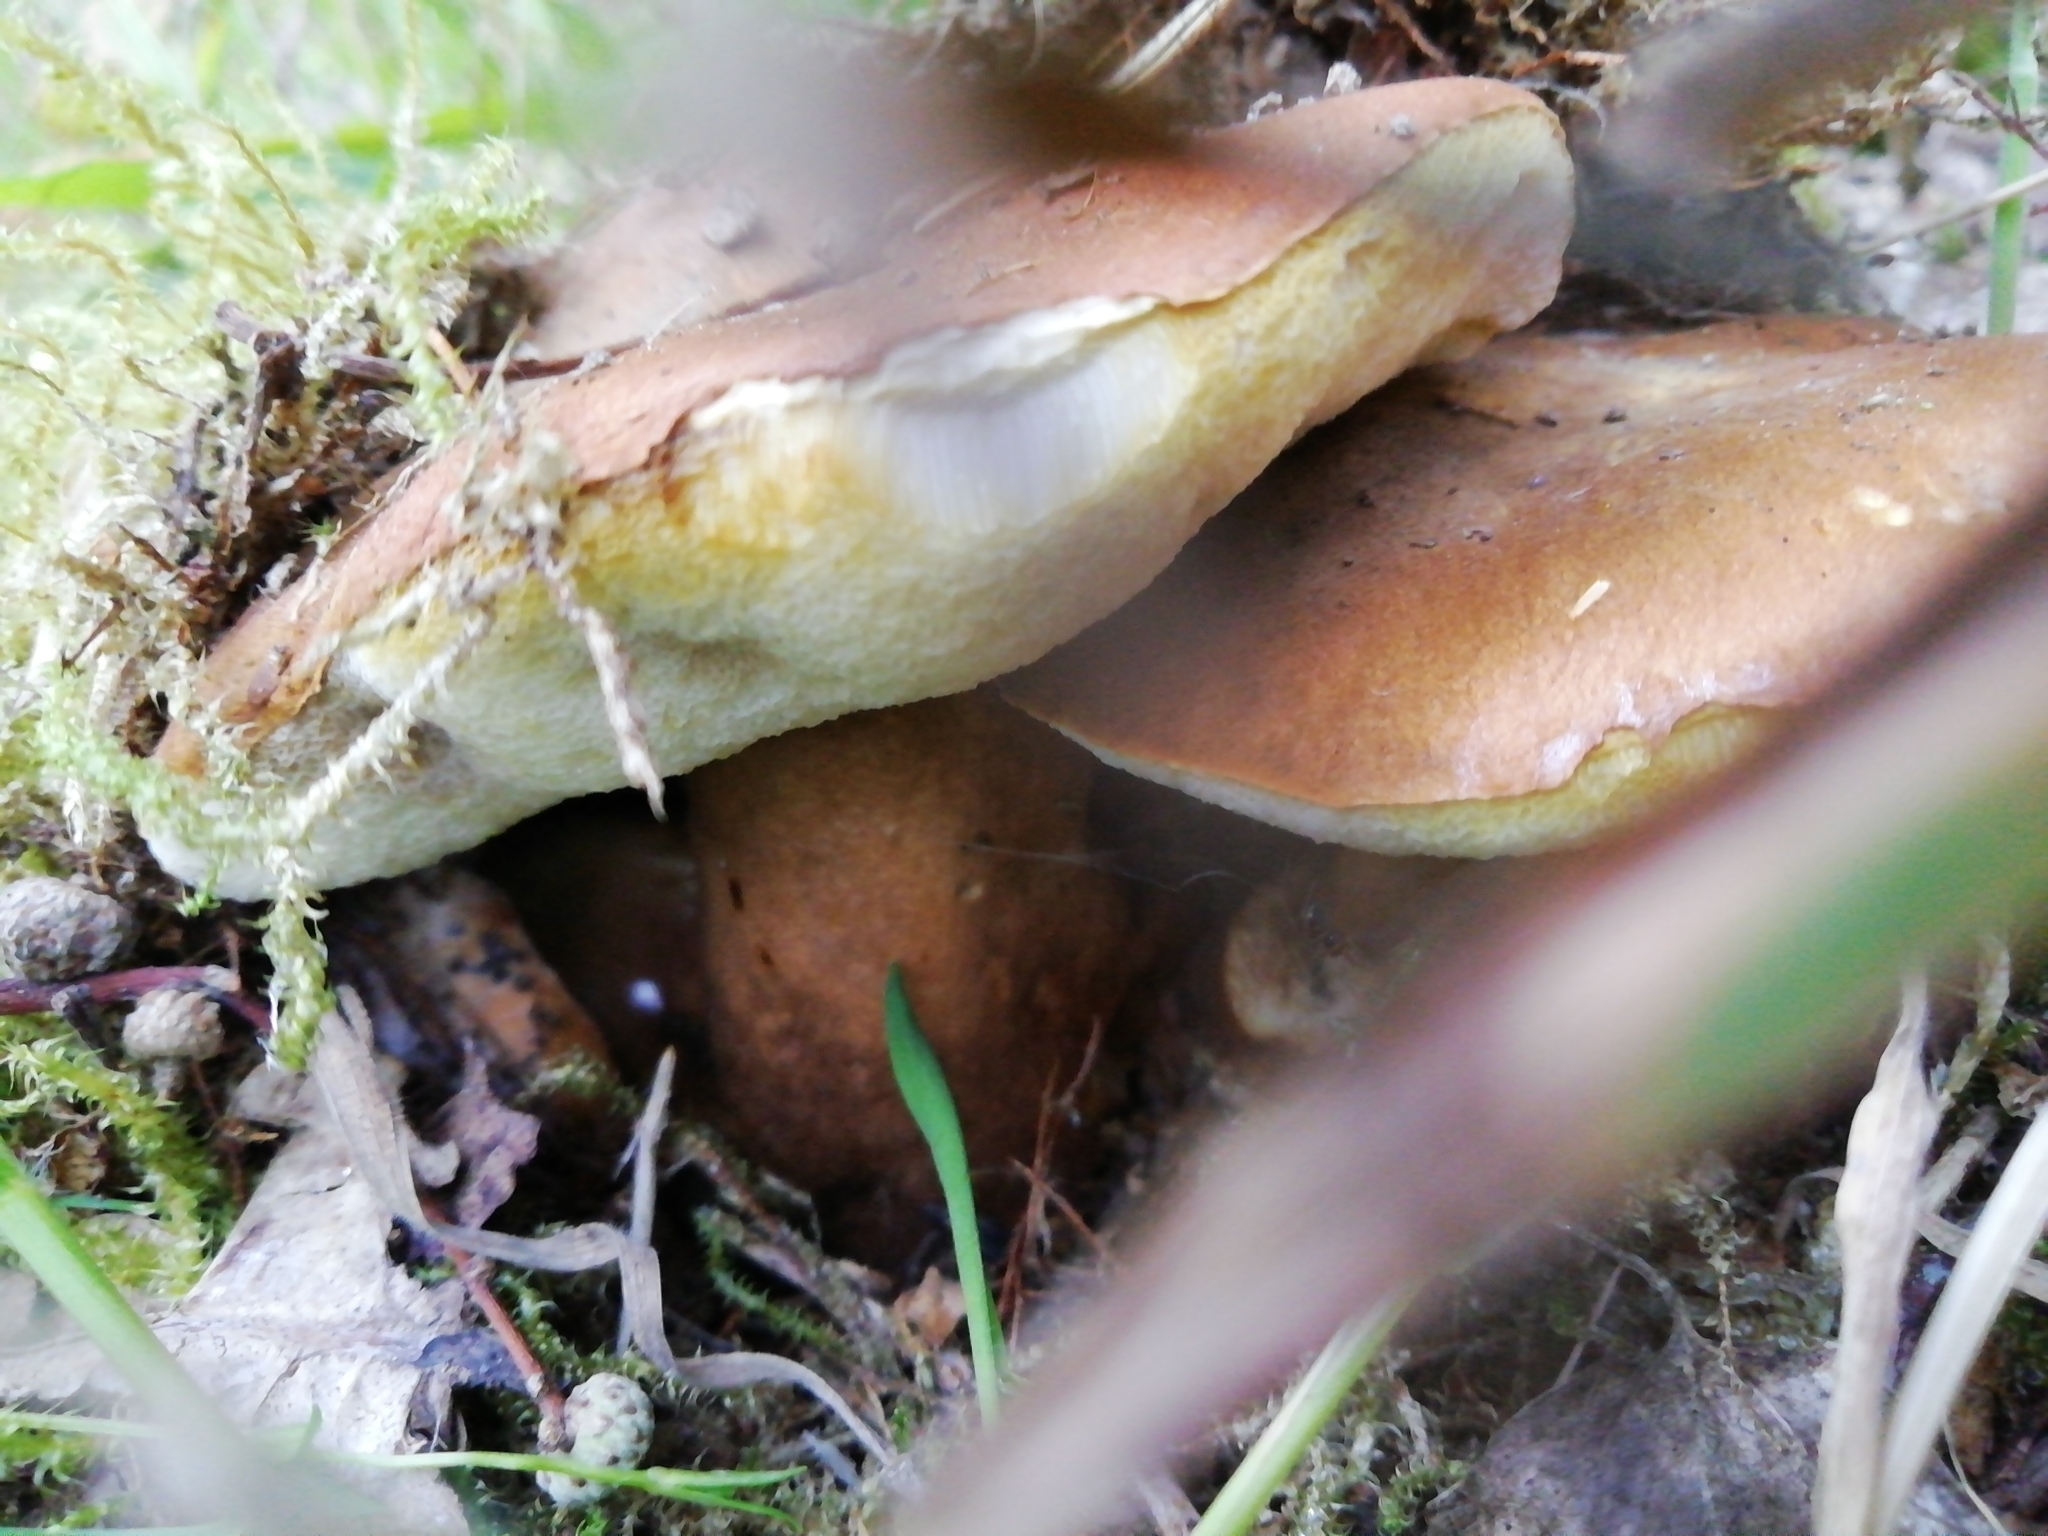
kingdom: Fungi
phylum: Basidiomycota
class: Agaricomycetes
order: Boletales
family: Gyroporaceae
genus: Gyroporus
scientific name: Gyroporus castaneus
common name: Chestnut bolete
